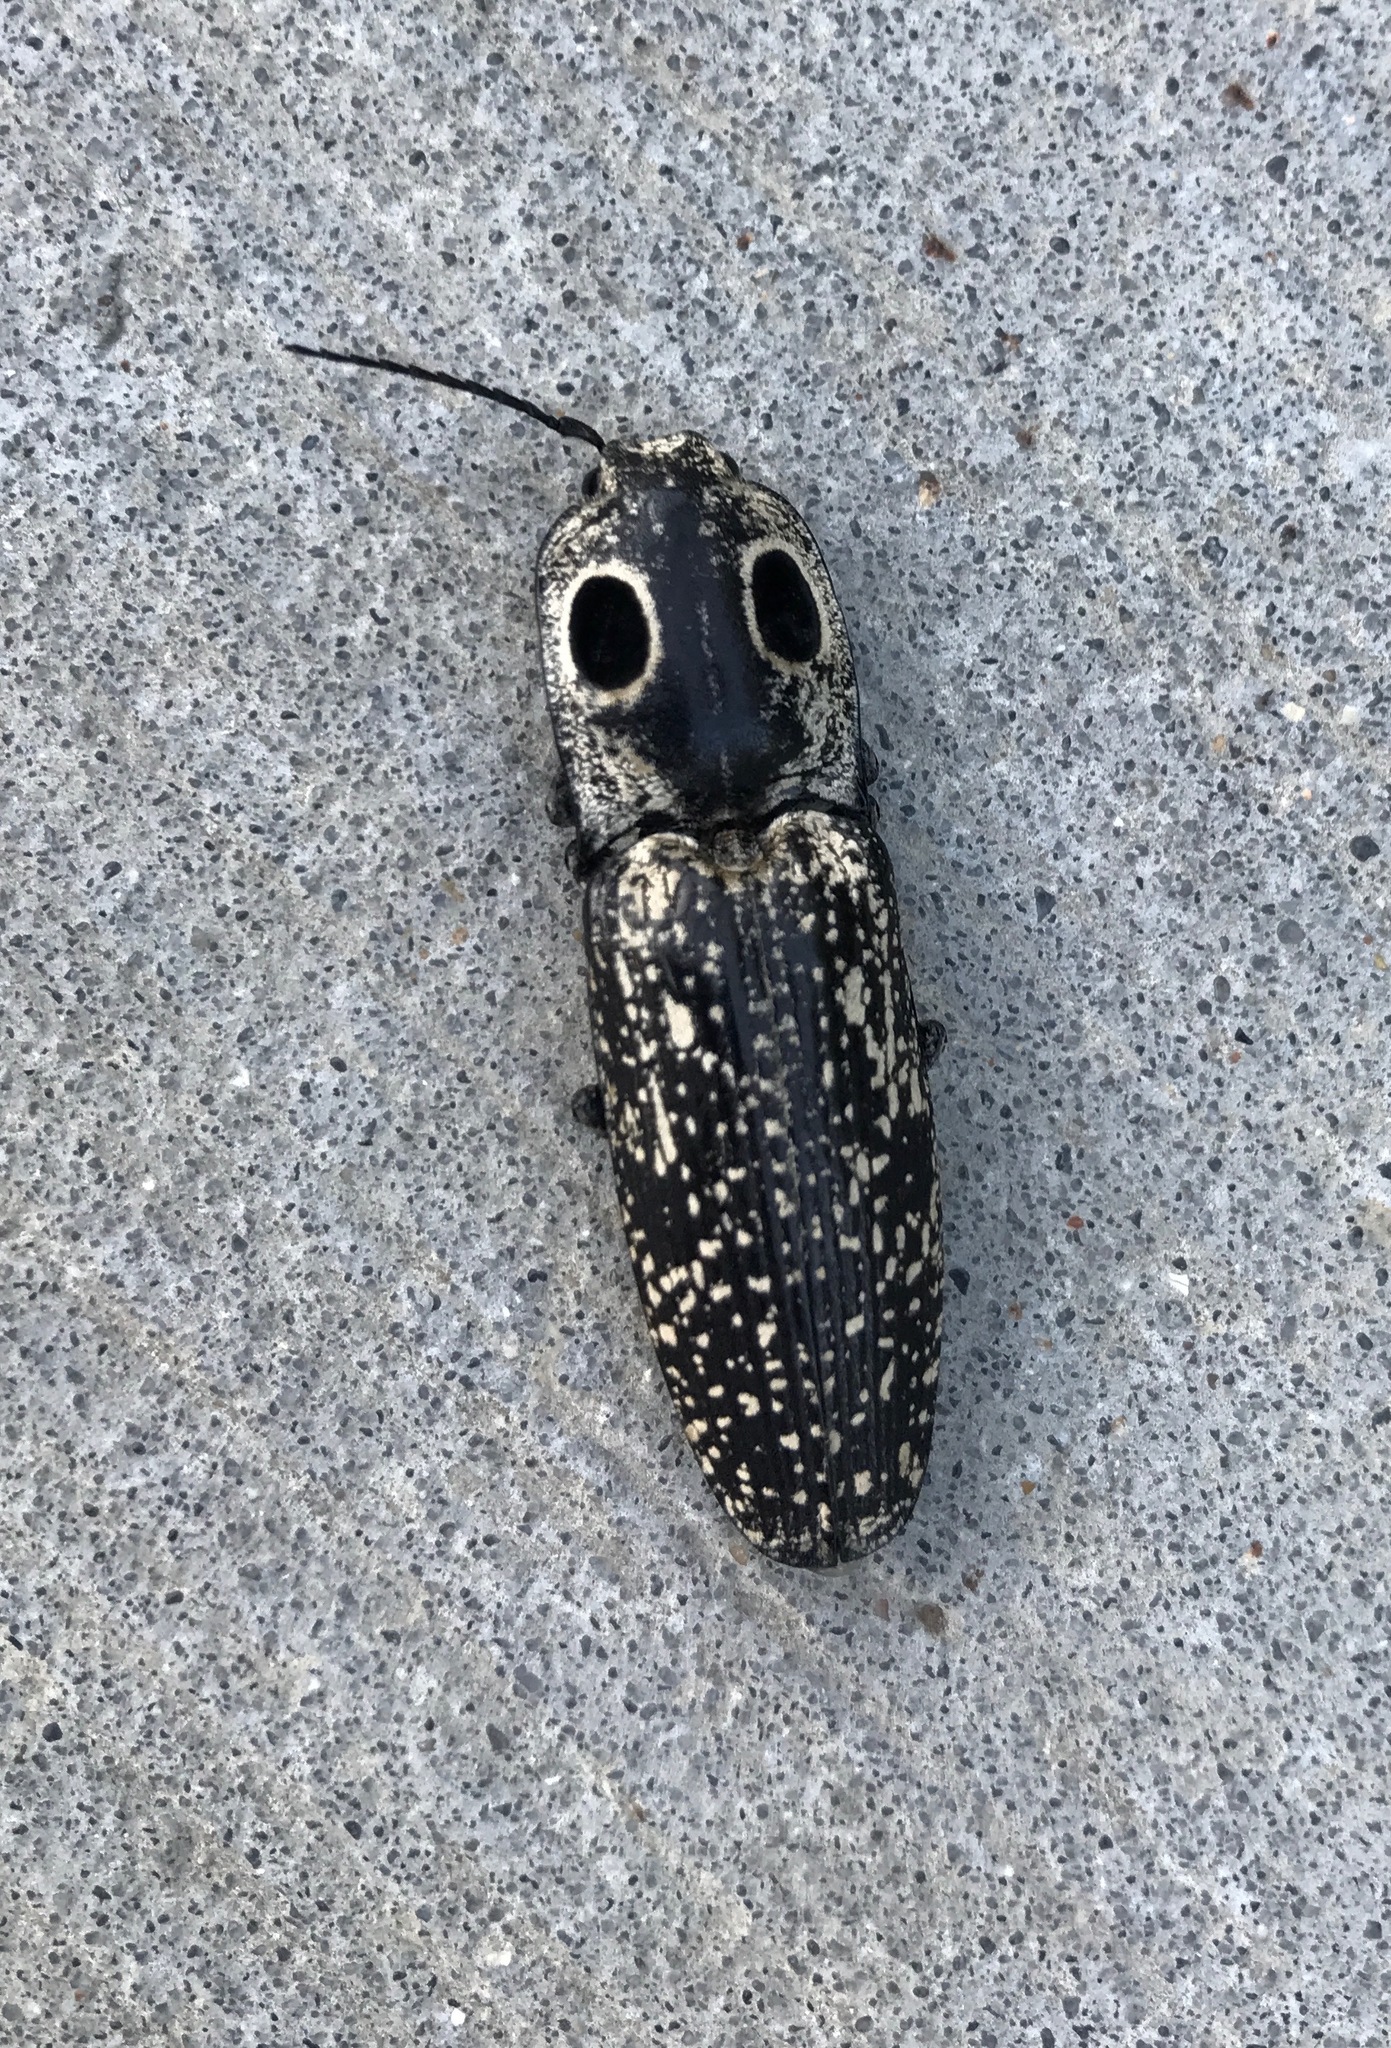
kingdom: Animalia
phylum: Arthropoda
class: Insecta
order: Coleoptera
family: Elateridae
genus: Alaus
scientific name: Alaus oculatus
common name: Eastern eyed click beetle
